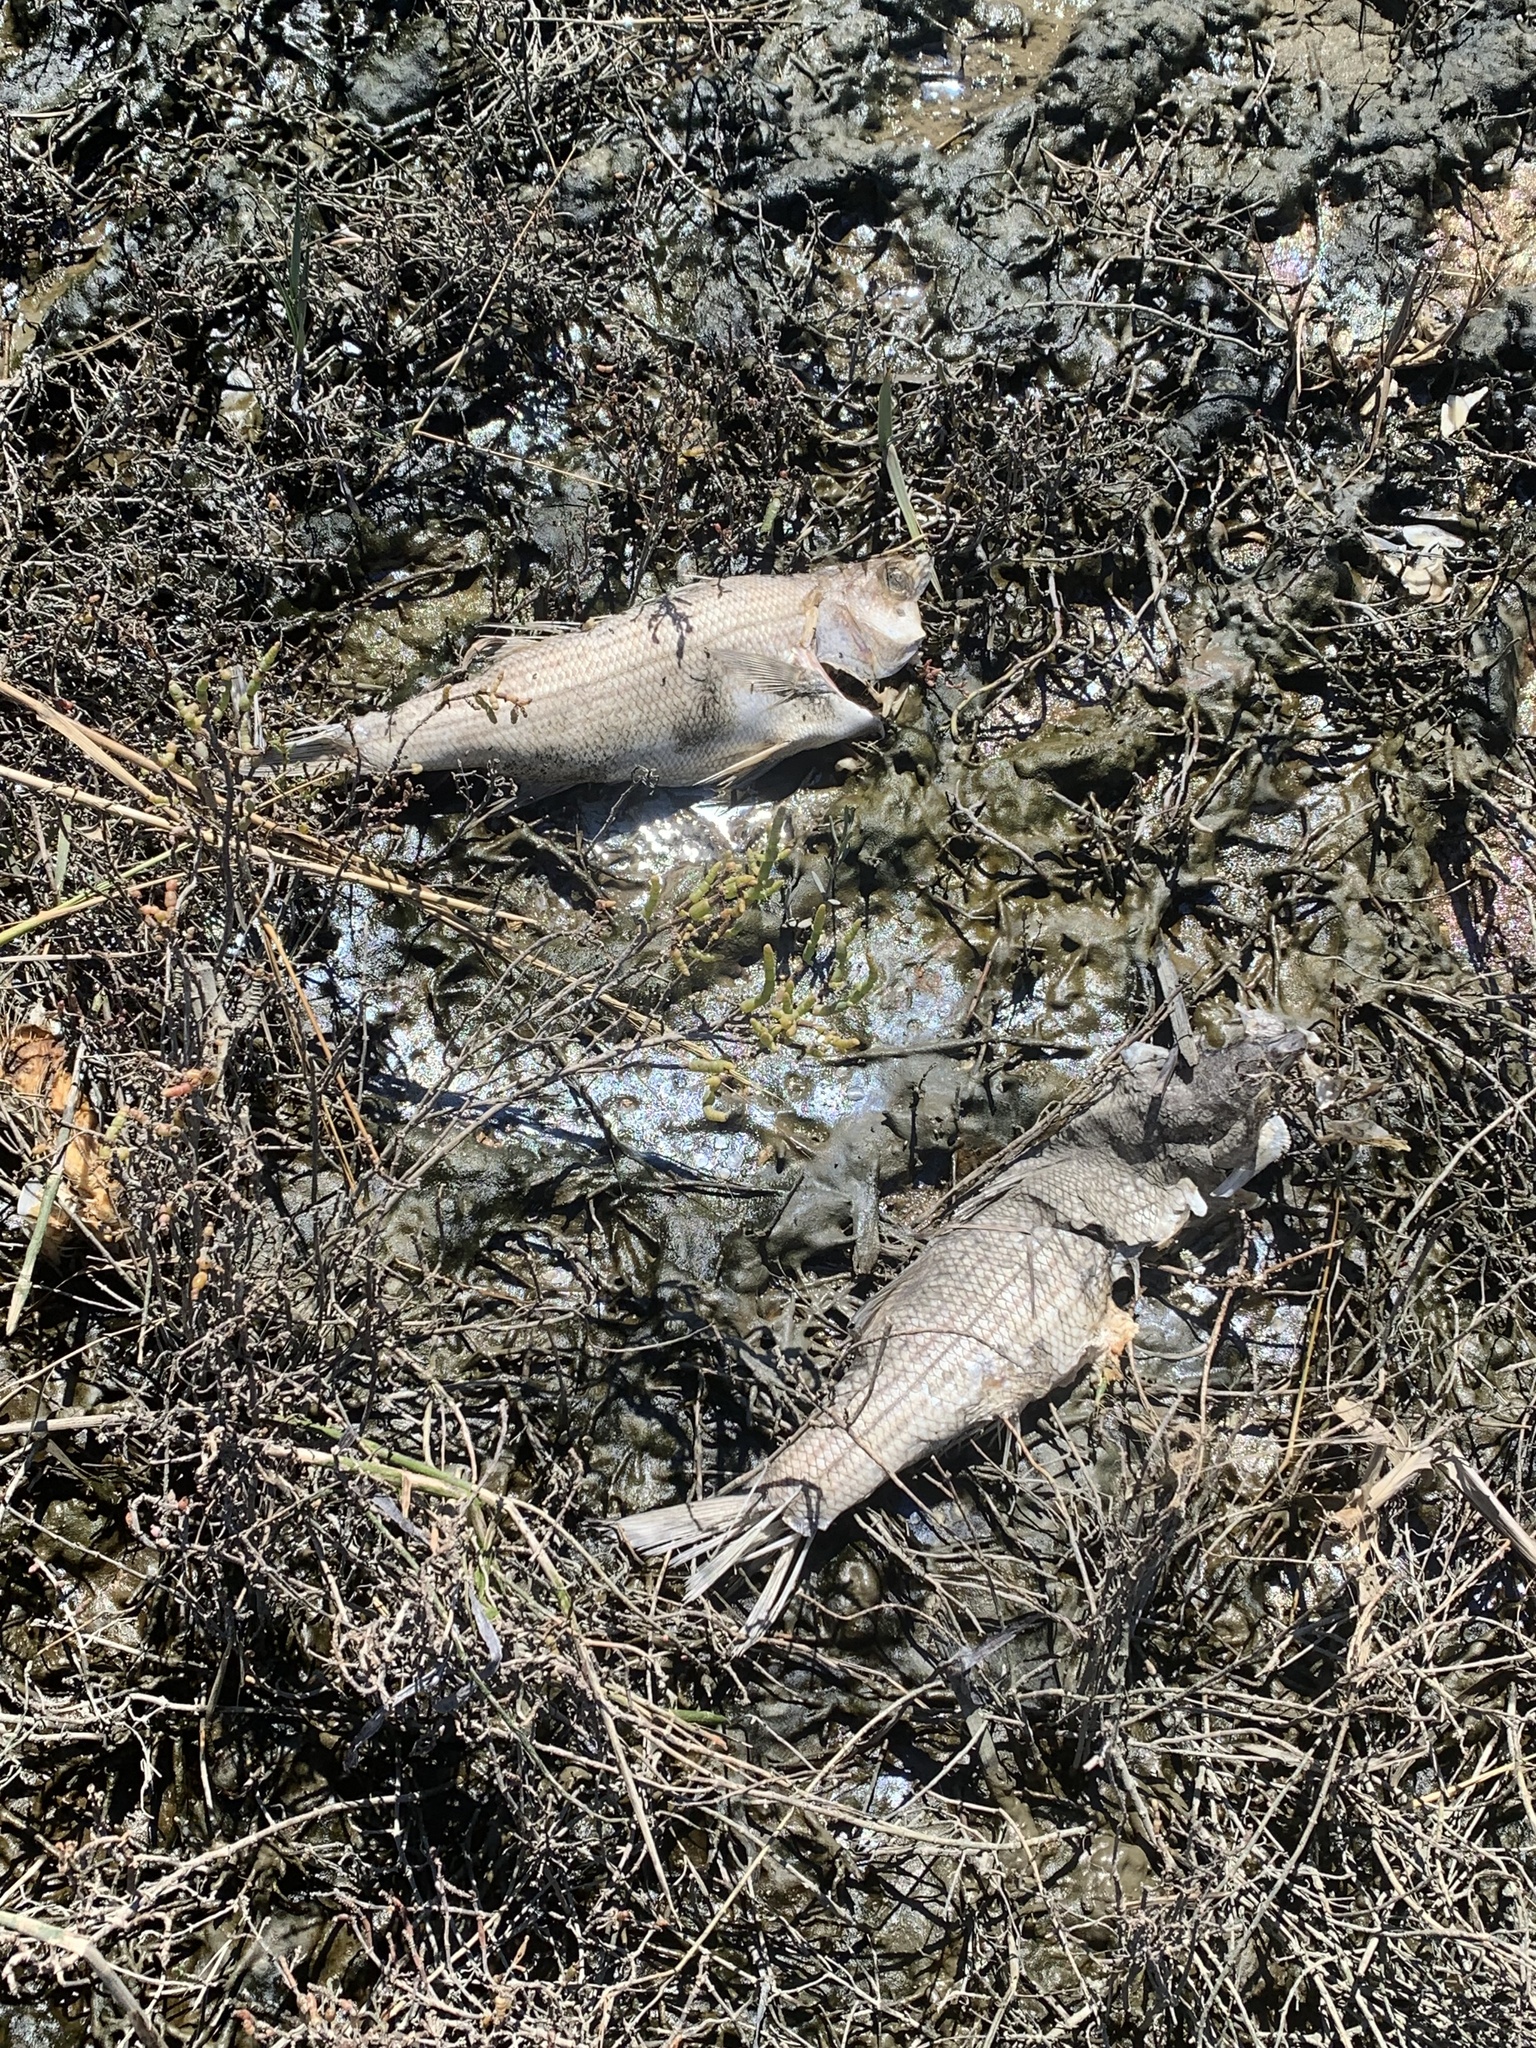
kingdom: Animalia
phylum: Chordata
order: Perciformes
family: Moronidae
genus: Morone
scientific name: Morone saxatilis
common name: Striped bass
